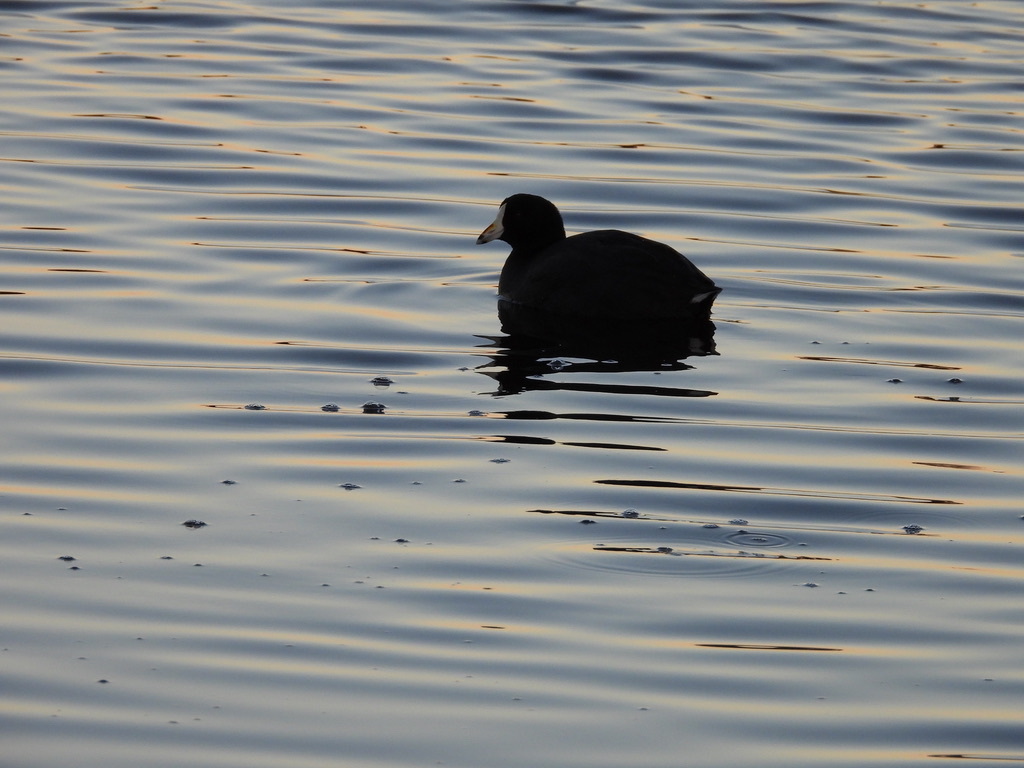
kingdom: Animalia
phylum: Chordata
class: Aves
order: Gruiformes
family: Rallidae
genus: Fulica
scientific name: Fulica americana
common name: American coot
